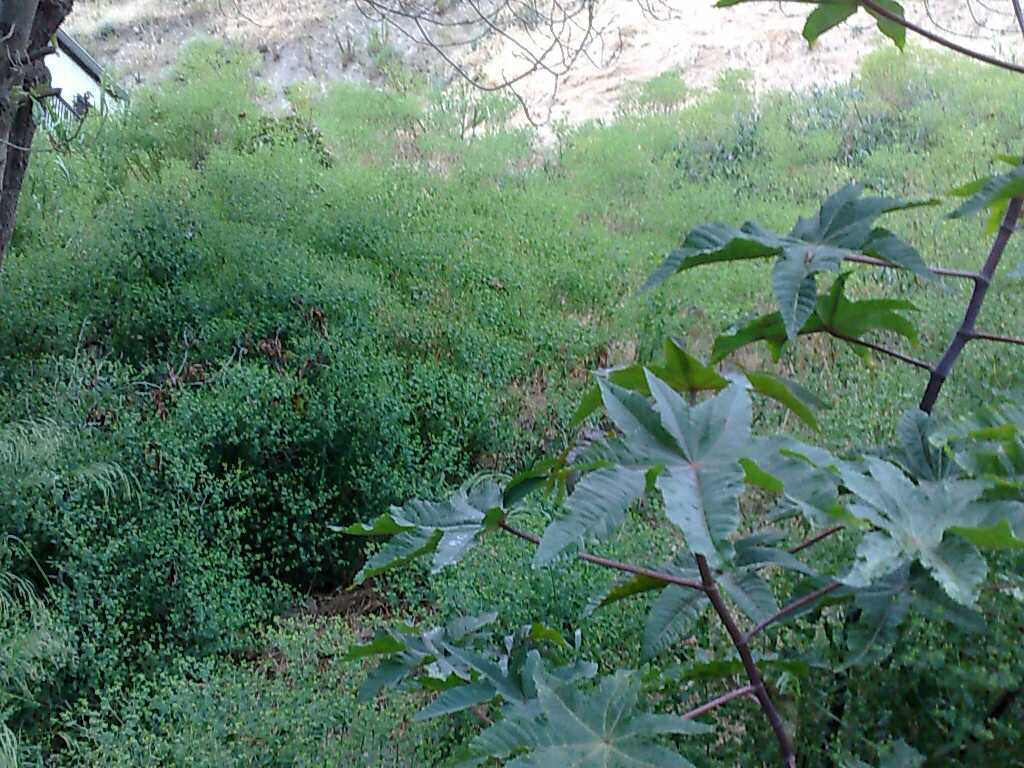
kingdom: Plantae
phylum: Tracheophyta
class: Magnoliopsida
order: Malpighiales
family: Euphorbiaceae
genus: Ricinus
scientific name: Ricinus communis
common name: Castor-oil-plant
